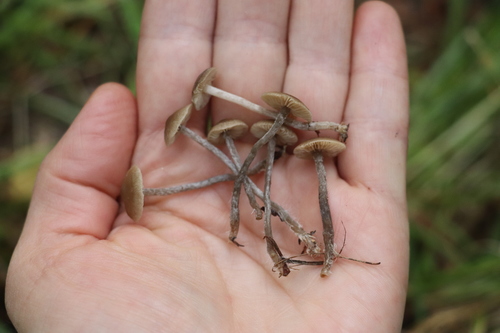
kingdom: Fungi
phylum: Basidiomycota
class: Agaricomycetes
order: Agaricales
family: Lyophyllaceae
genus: Tephrocybe
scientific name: Tephrocybe rancida
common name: Rancid greyling
